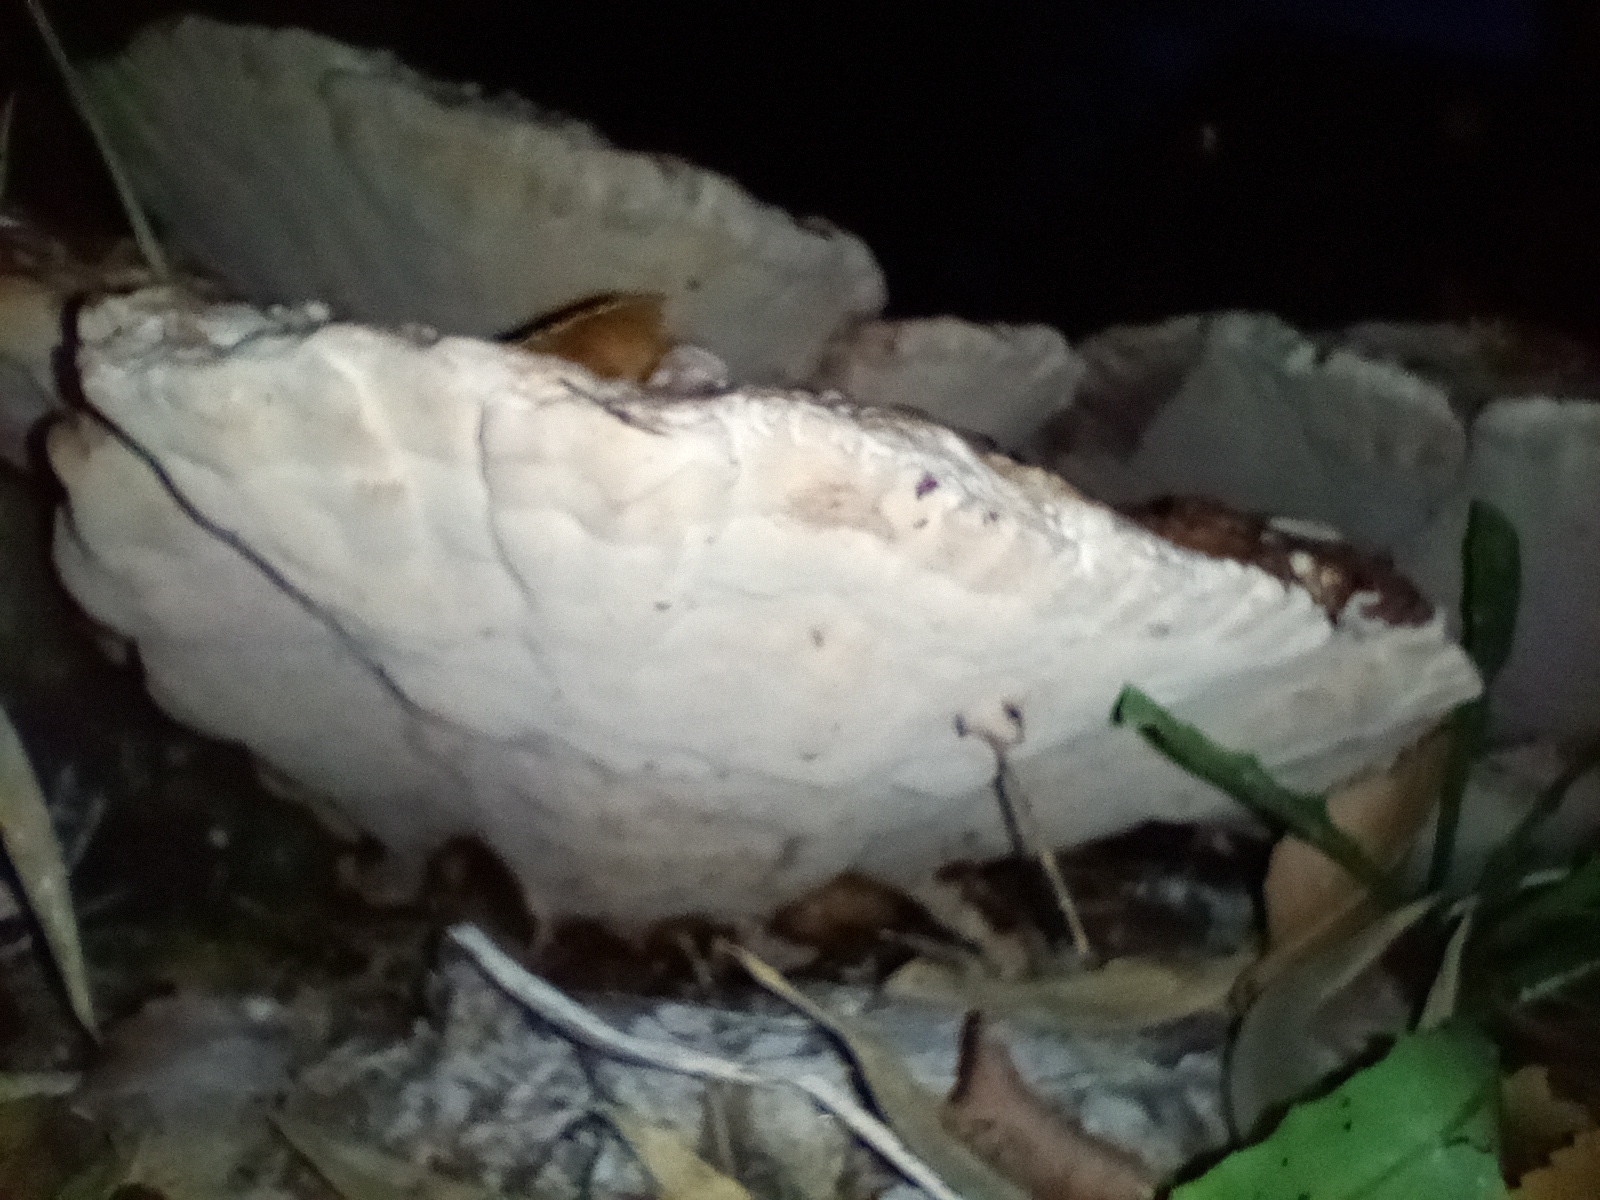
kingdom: Fungi
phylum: Basidiomycota
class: Agaricomycetes
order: Polyporales
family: Polyporaceae
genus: Vanderbylia
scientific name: Vanderbylia fraxinea
